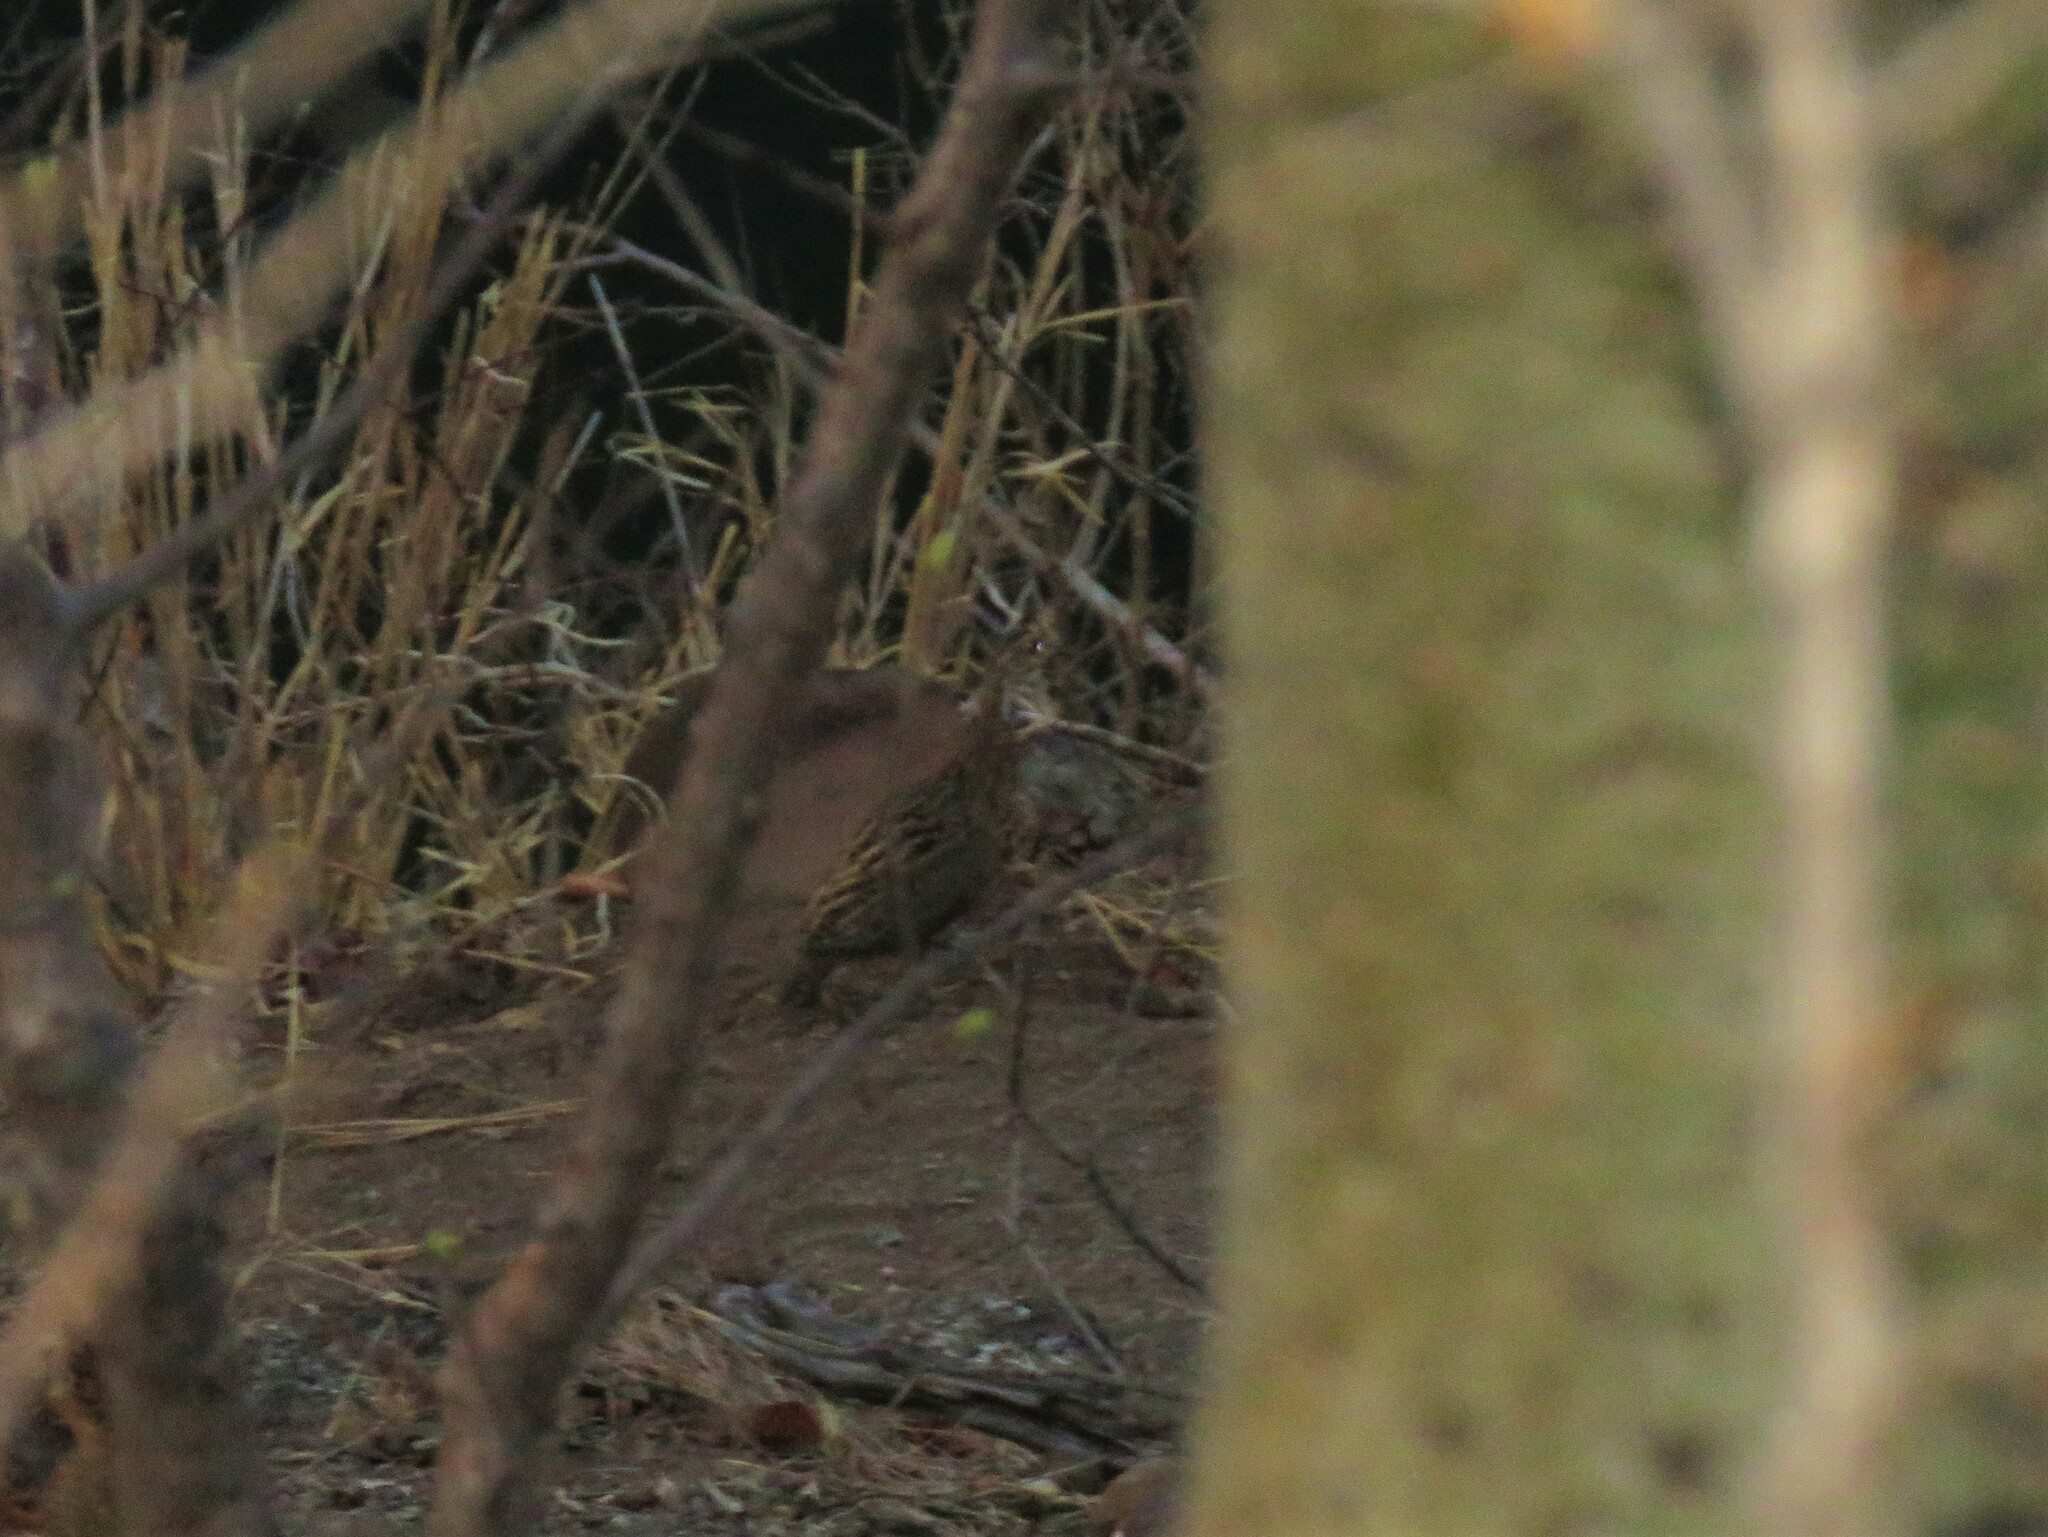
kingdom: Animalia
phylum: Chordata
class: Aves
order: Galliformes
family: Phasianidae
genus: Scleroptila
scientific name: Scleroptila shelleyi
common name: Shelley's francolin
